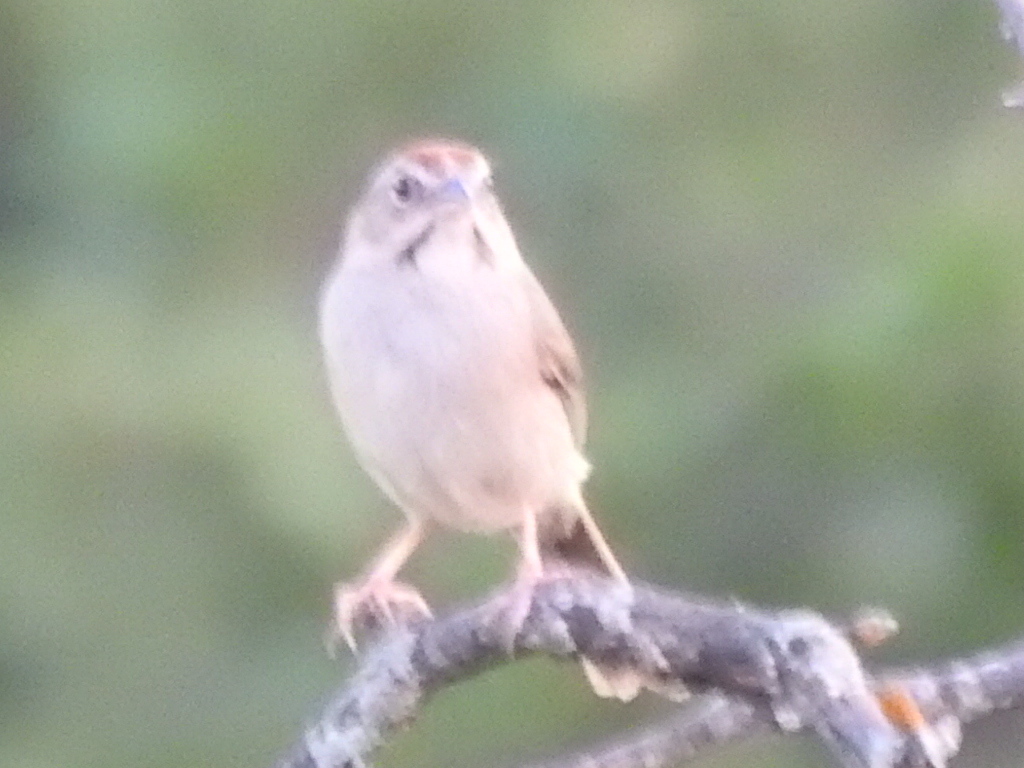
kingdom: Animalia
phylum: Chordata
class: Aves
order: Passeriformes
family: Passerellidae
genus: Aimophila
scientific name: Aimophila ruficeps
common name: Rufous-crowned sparrow
